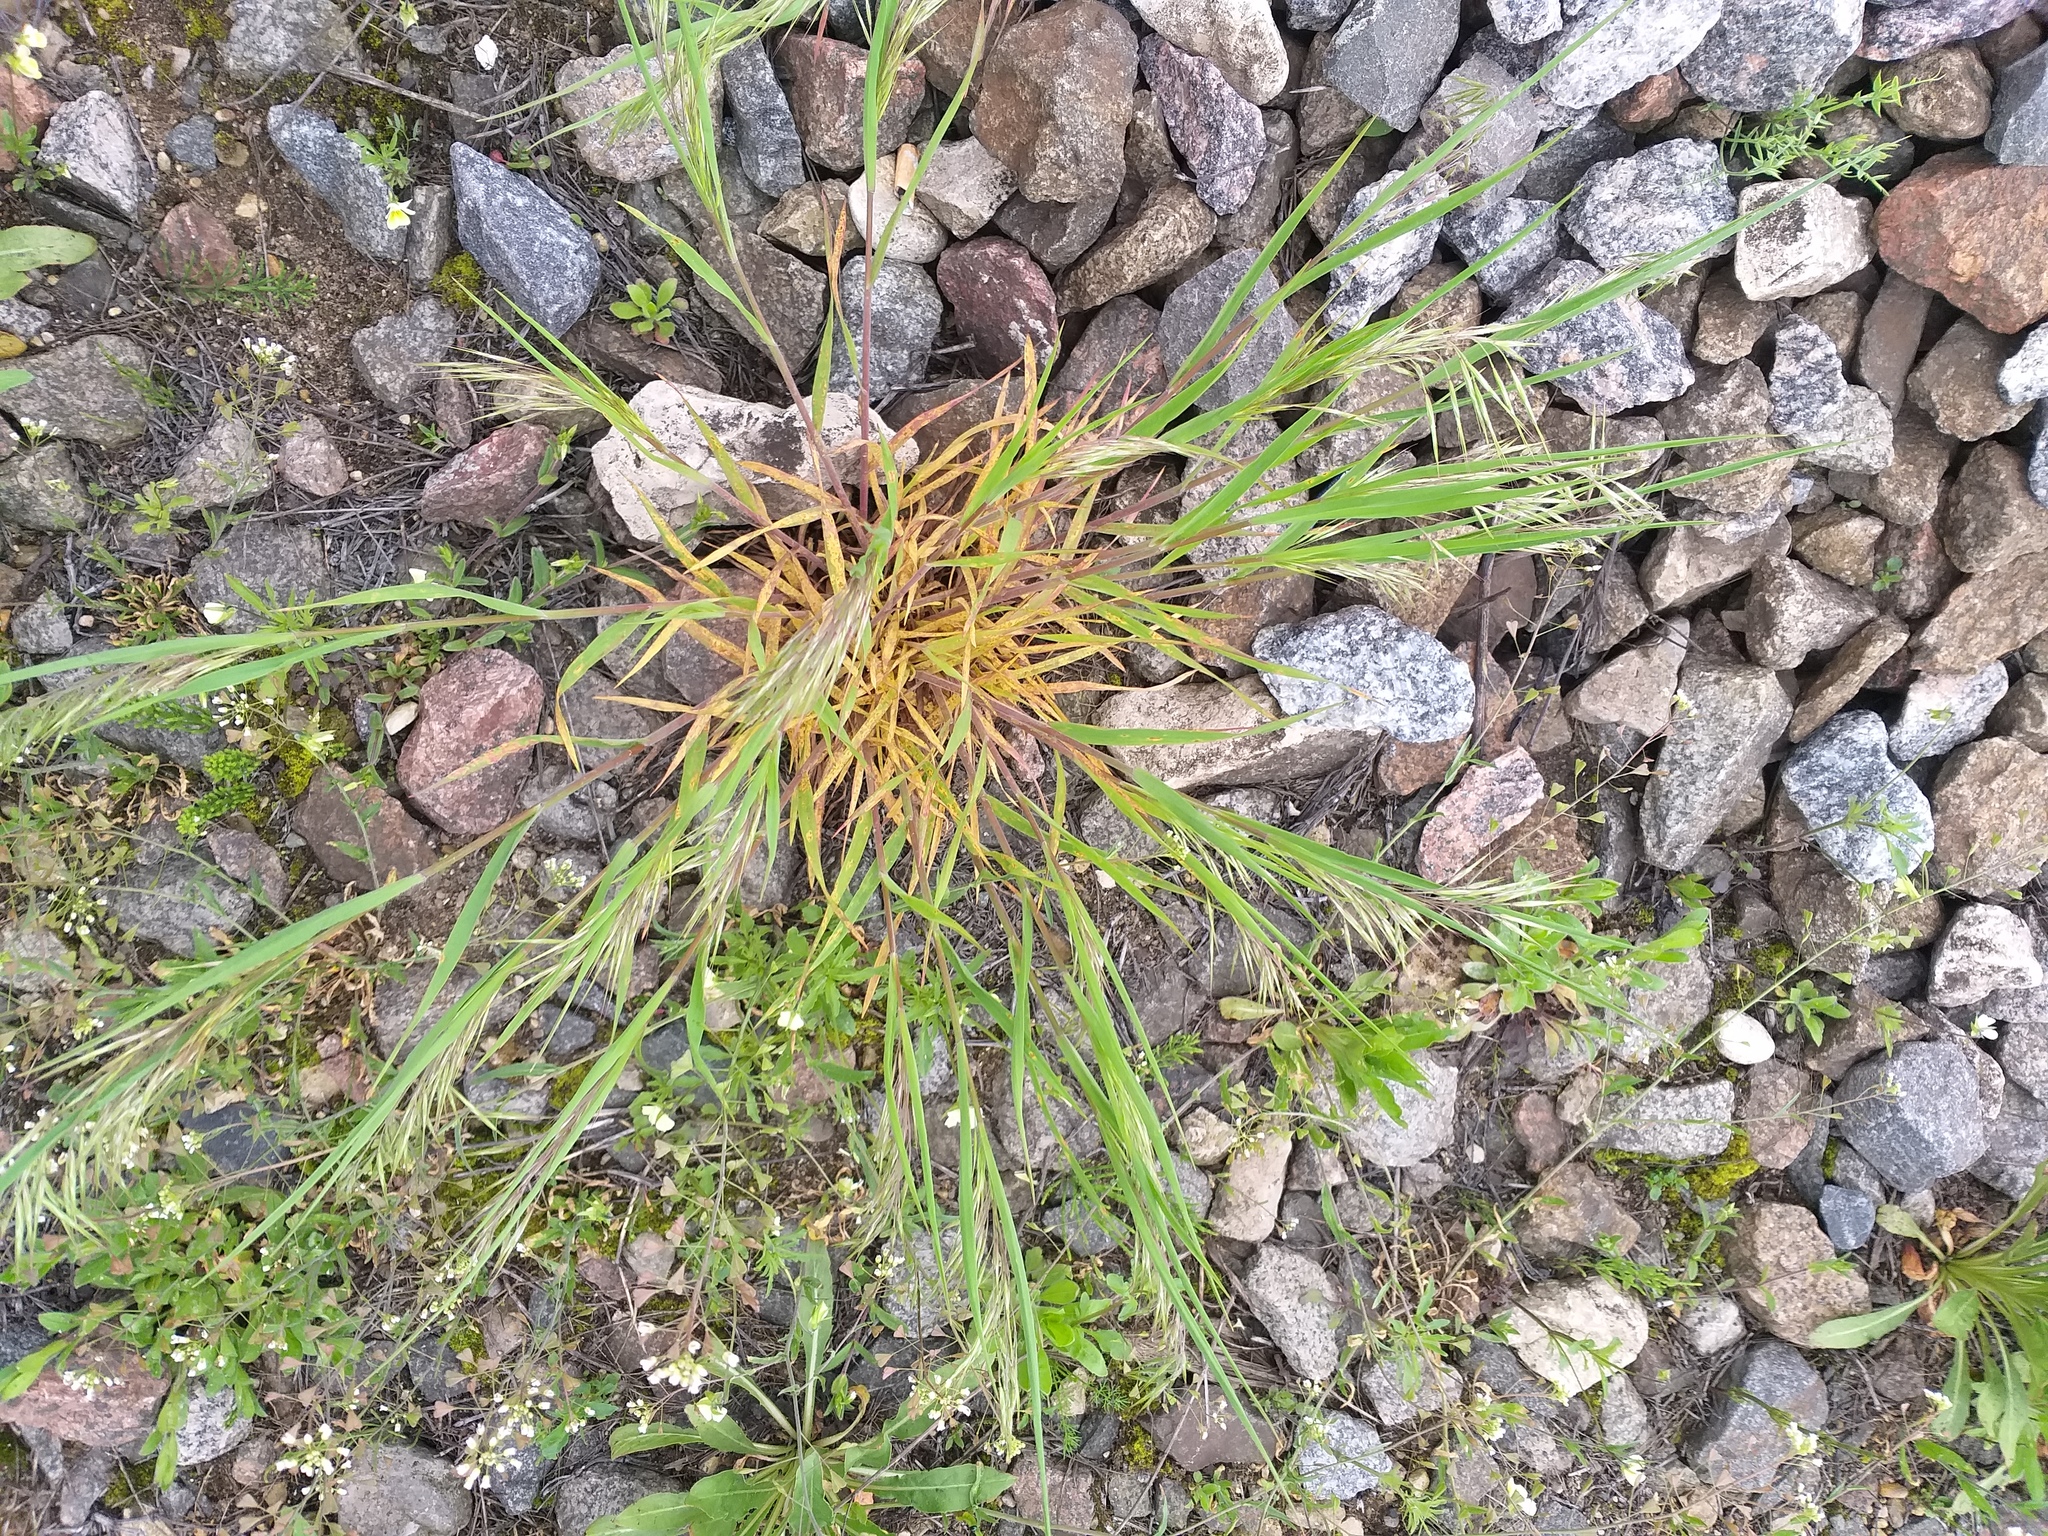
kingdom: Plantae
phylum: Tracheophyta
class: Liliopsida
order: Poales
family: Poaceae
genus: Bromus
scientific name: Bromus tectorum
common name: Cheatgrass
